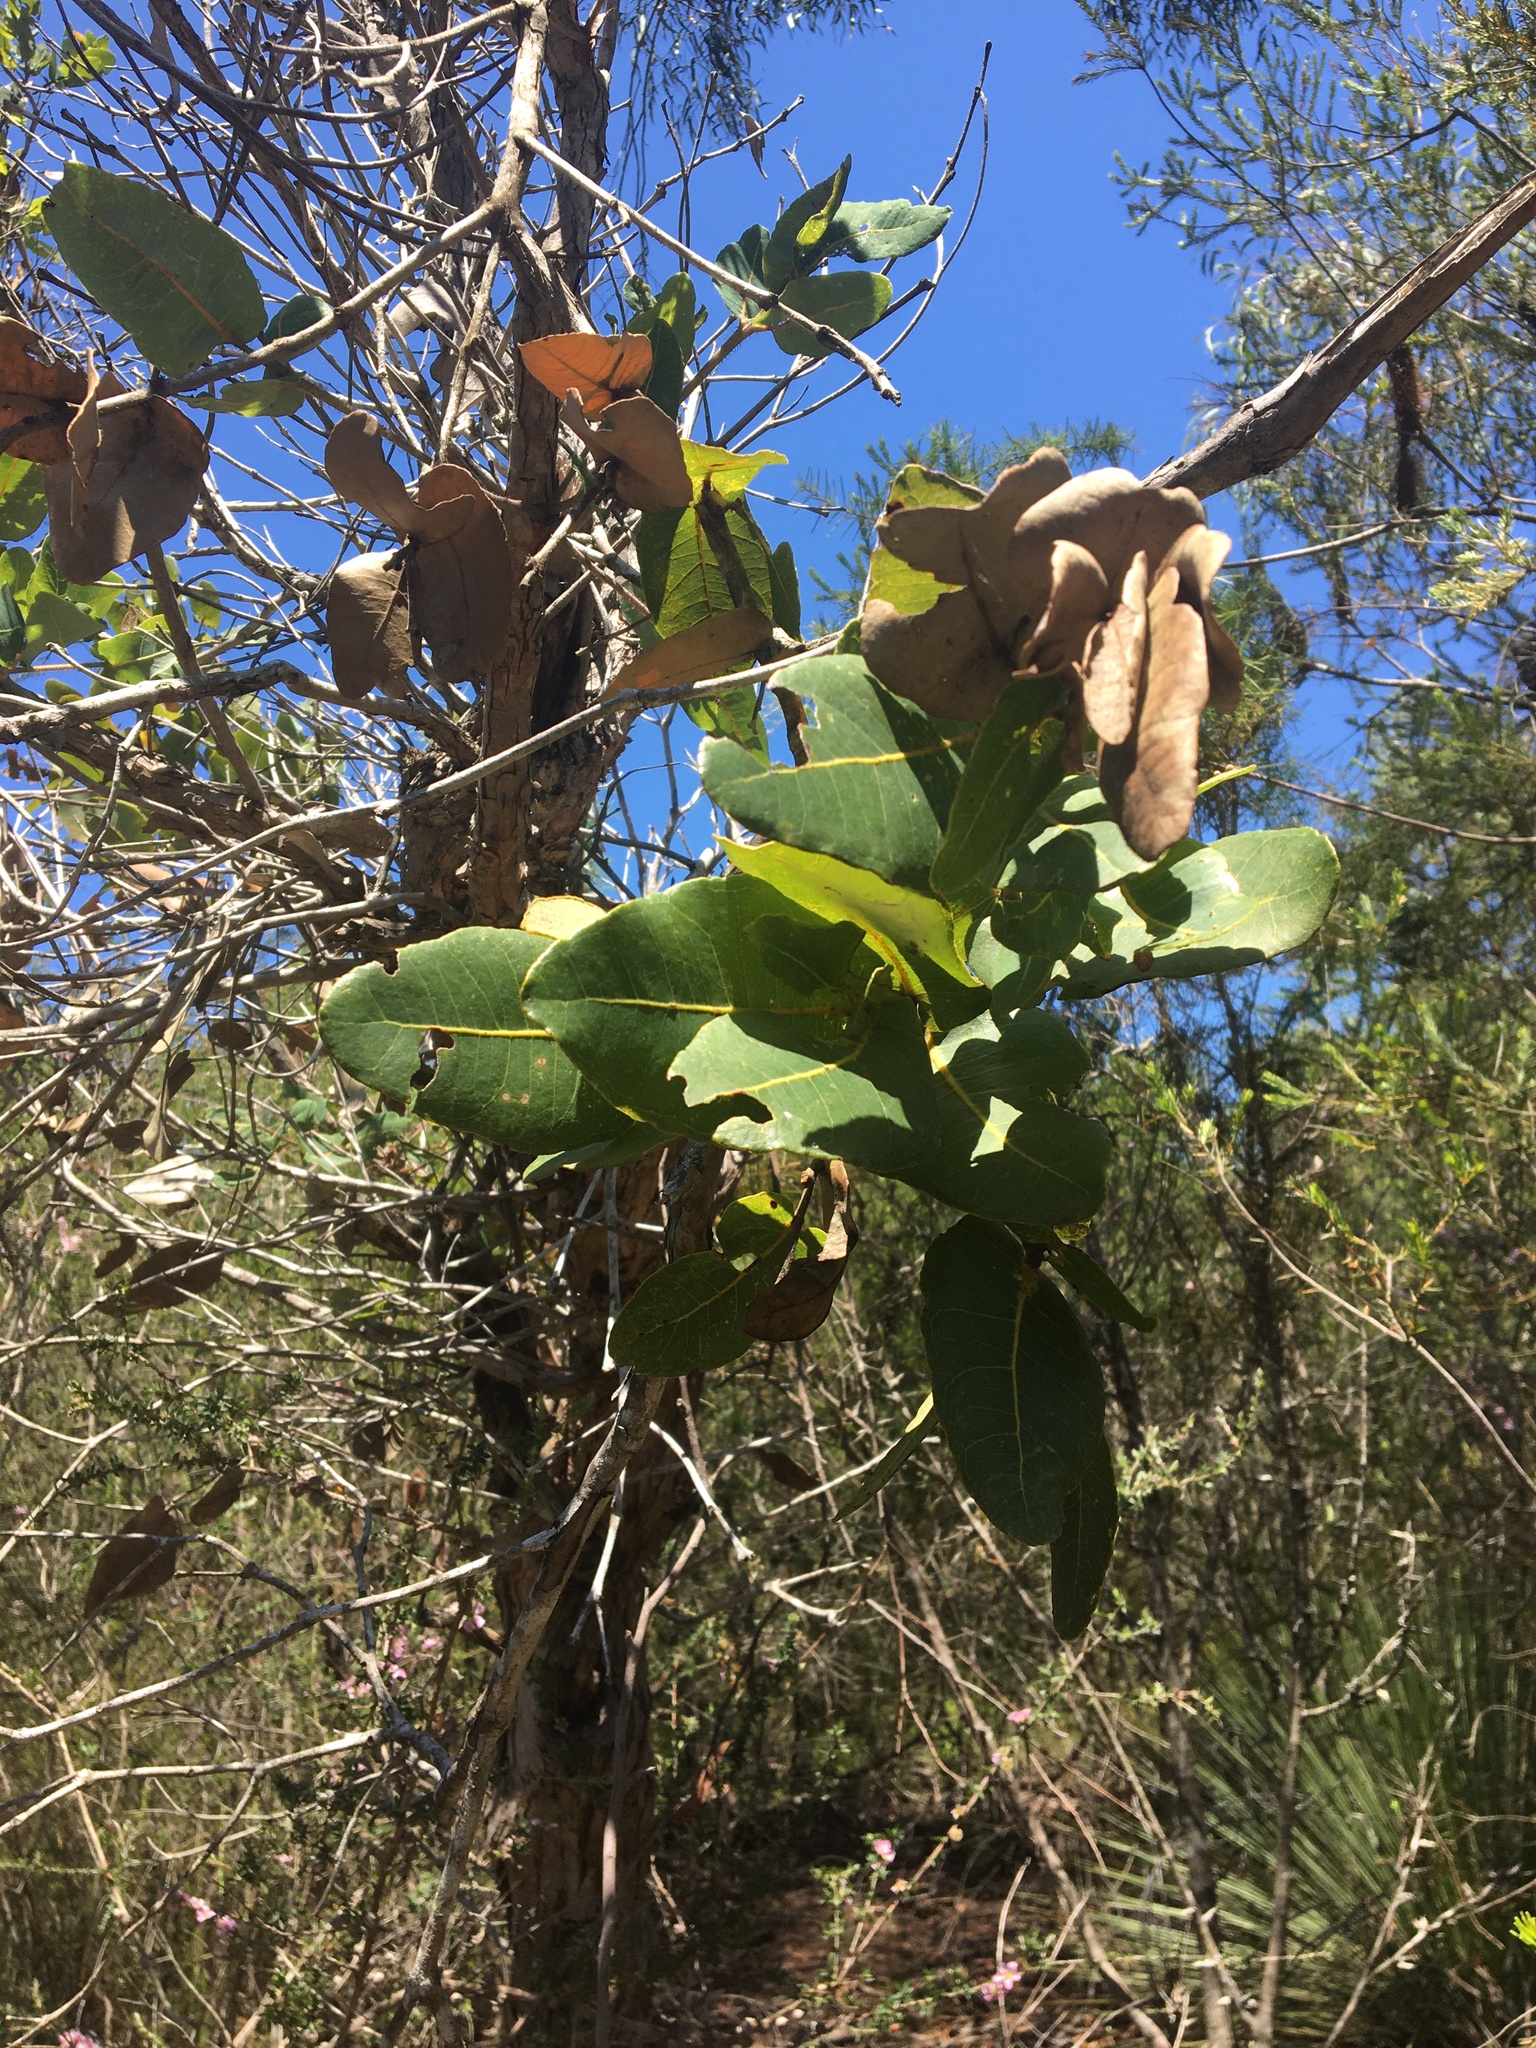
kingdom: Plantae
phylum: Tracheophyta
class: Magnoliopsida
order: Myrtales
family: Myrtaceae
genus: Angophora
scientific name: Angophora hispida
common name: Dwarf-apple
